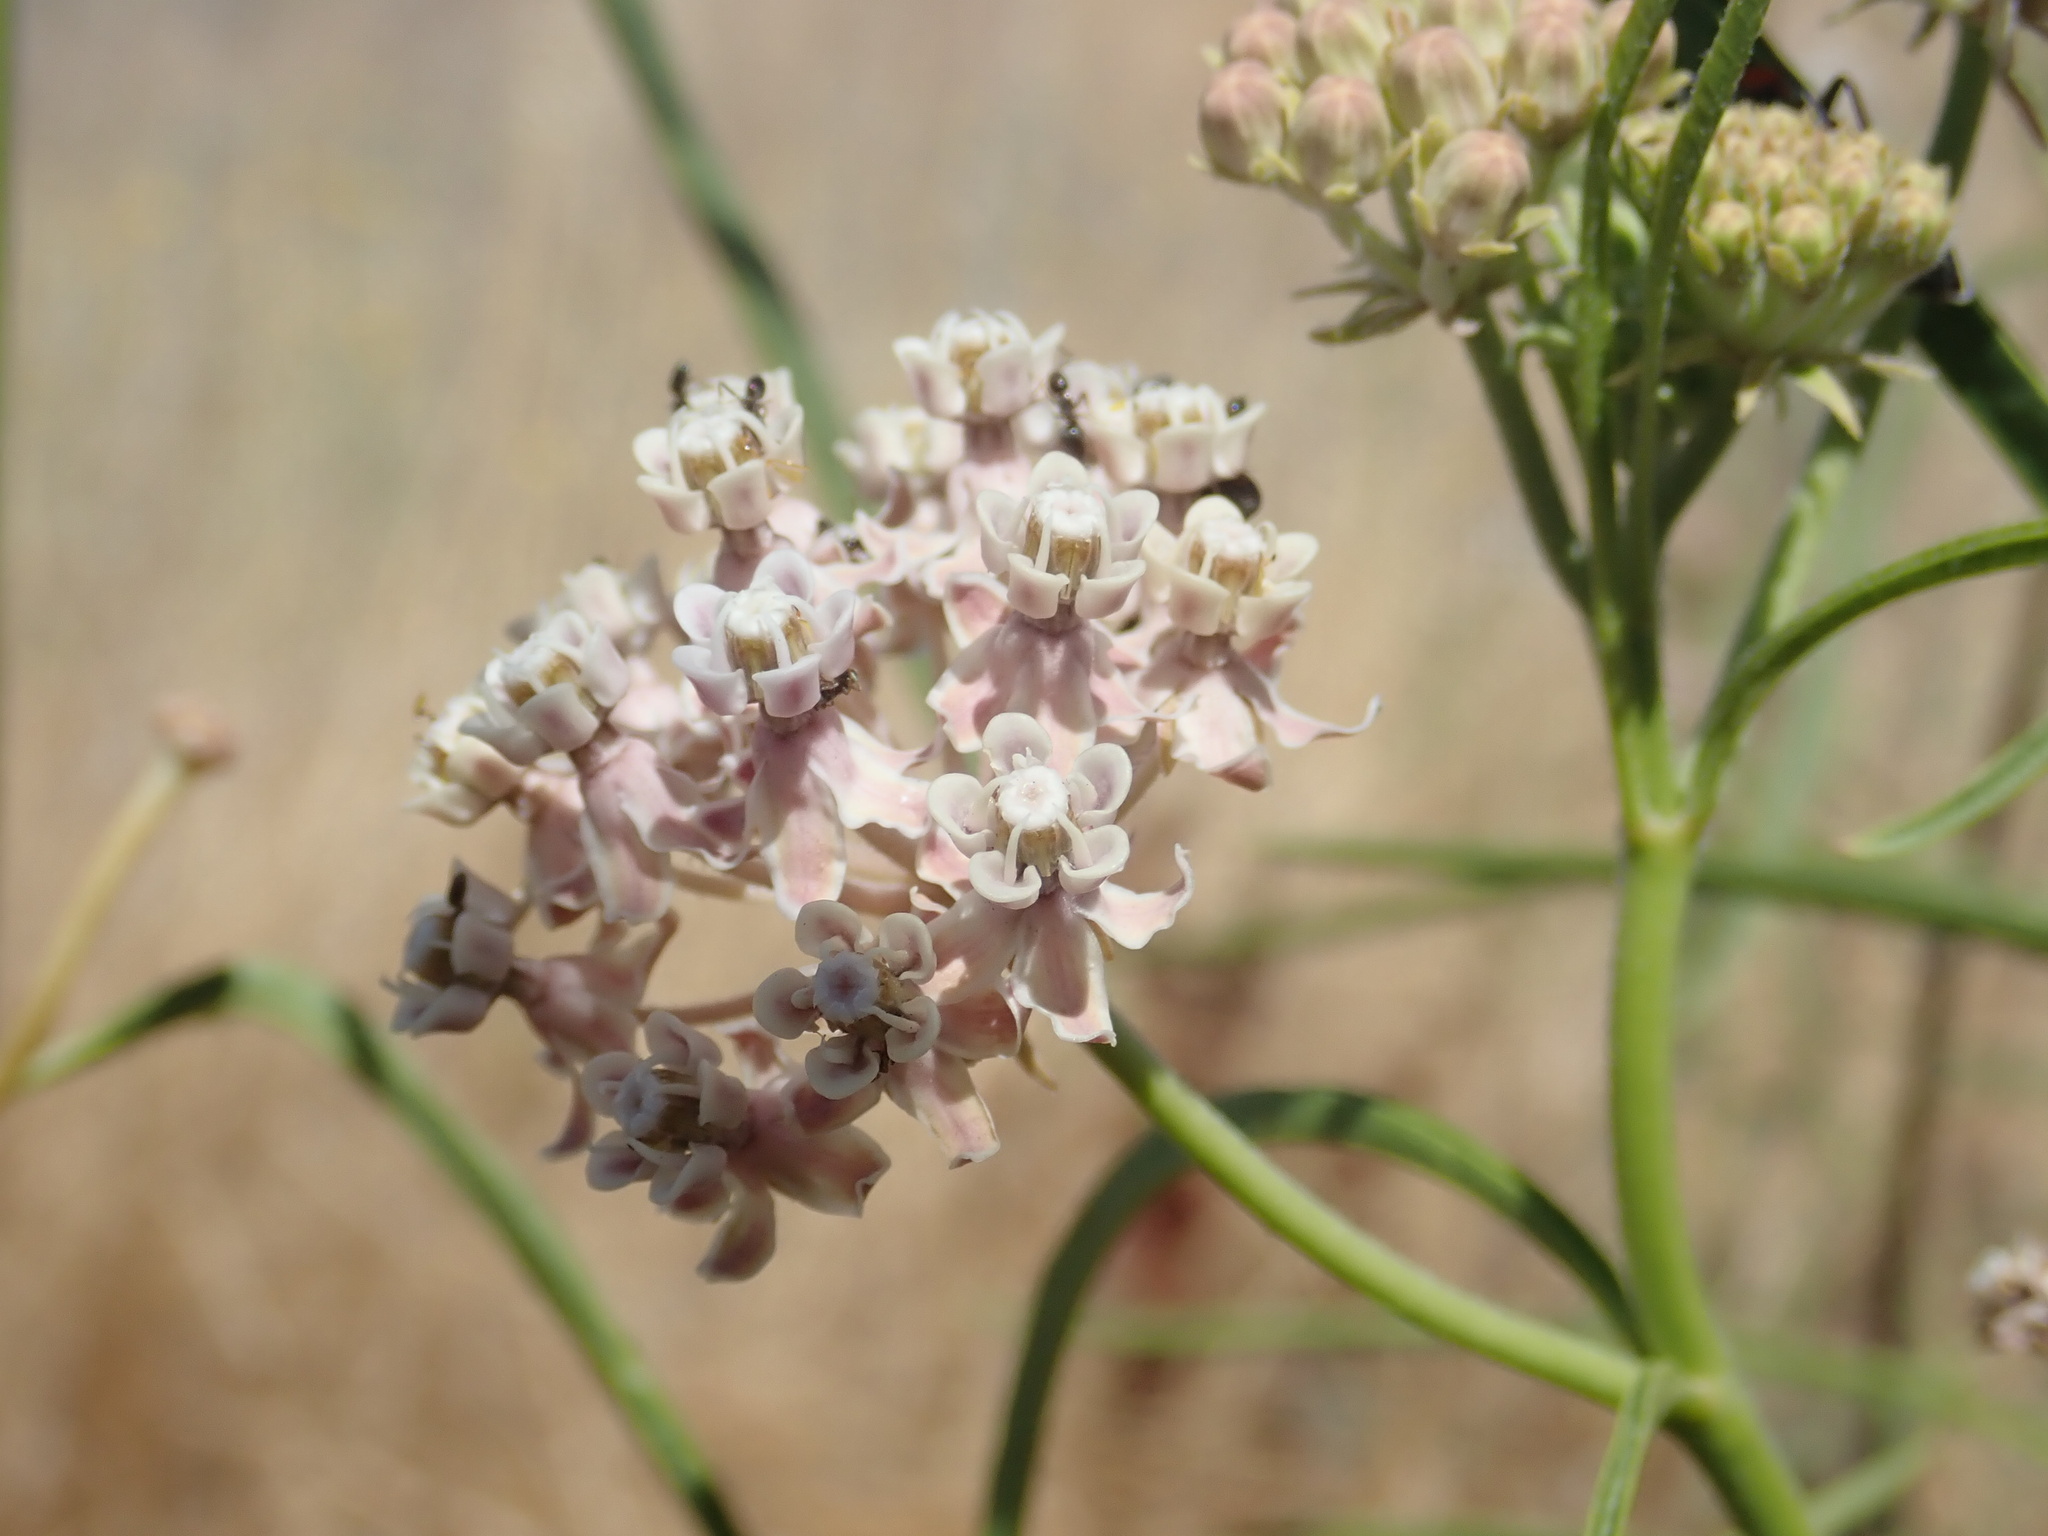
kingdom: Plantae
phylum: Tracheophyta
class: Magnoliopsida
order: Gentianales
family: Apocynaceae
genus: Asclepias
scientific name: Asclepias fascicularis
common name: Mexican milkweed
